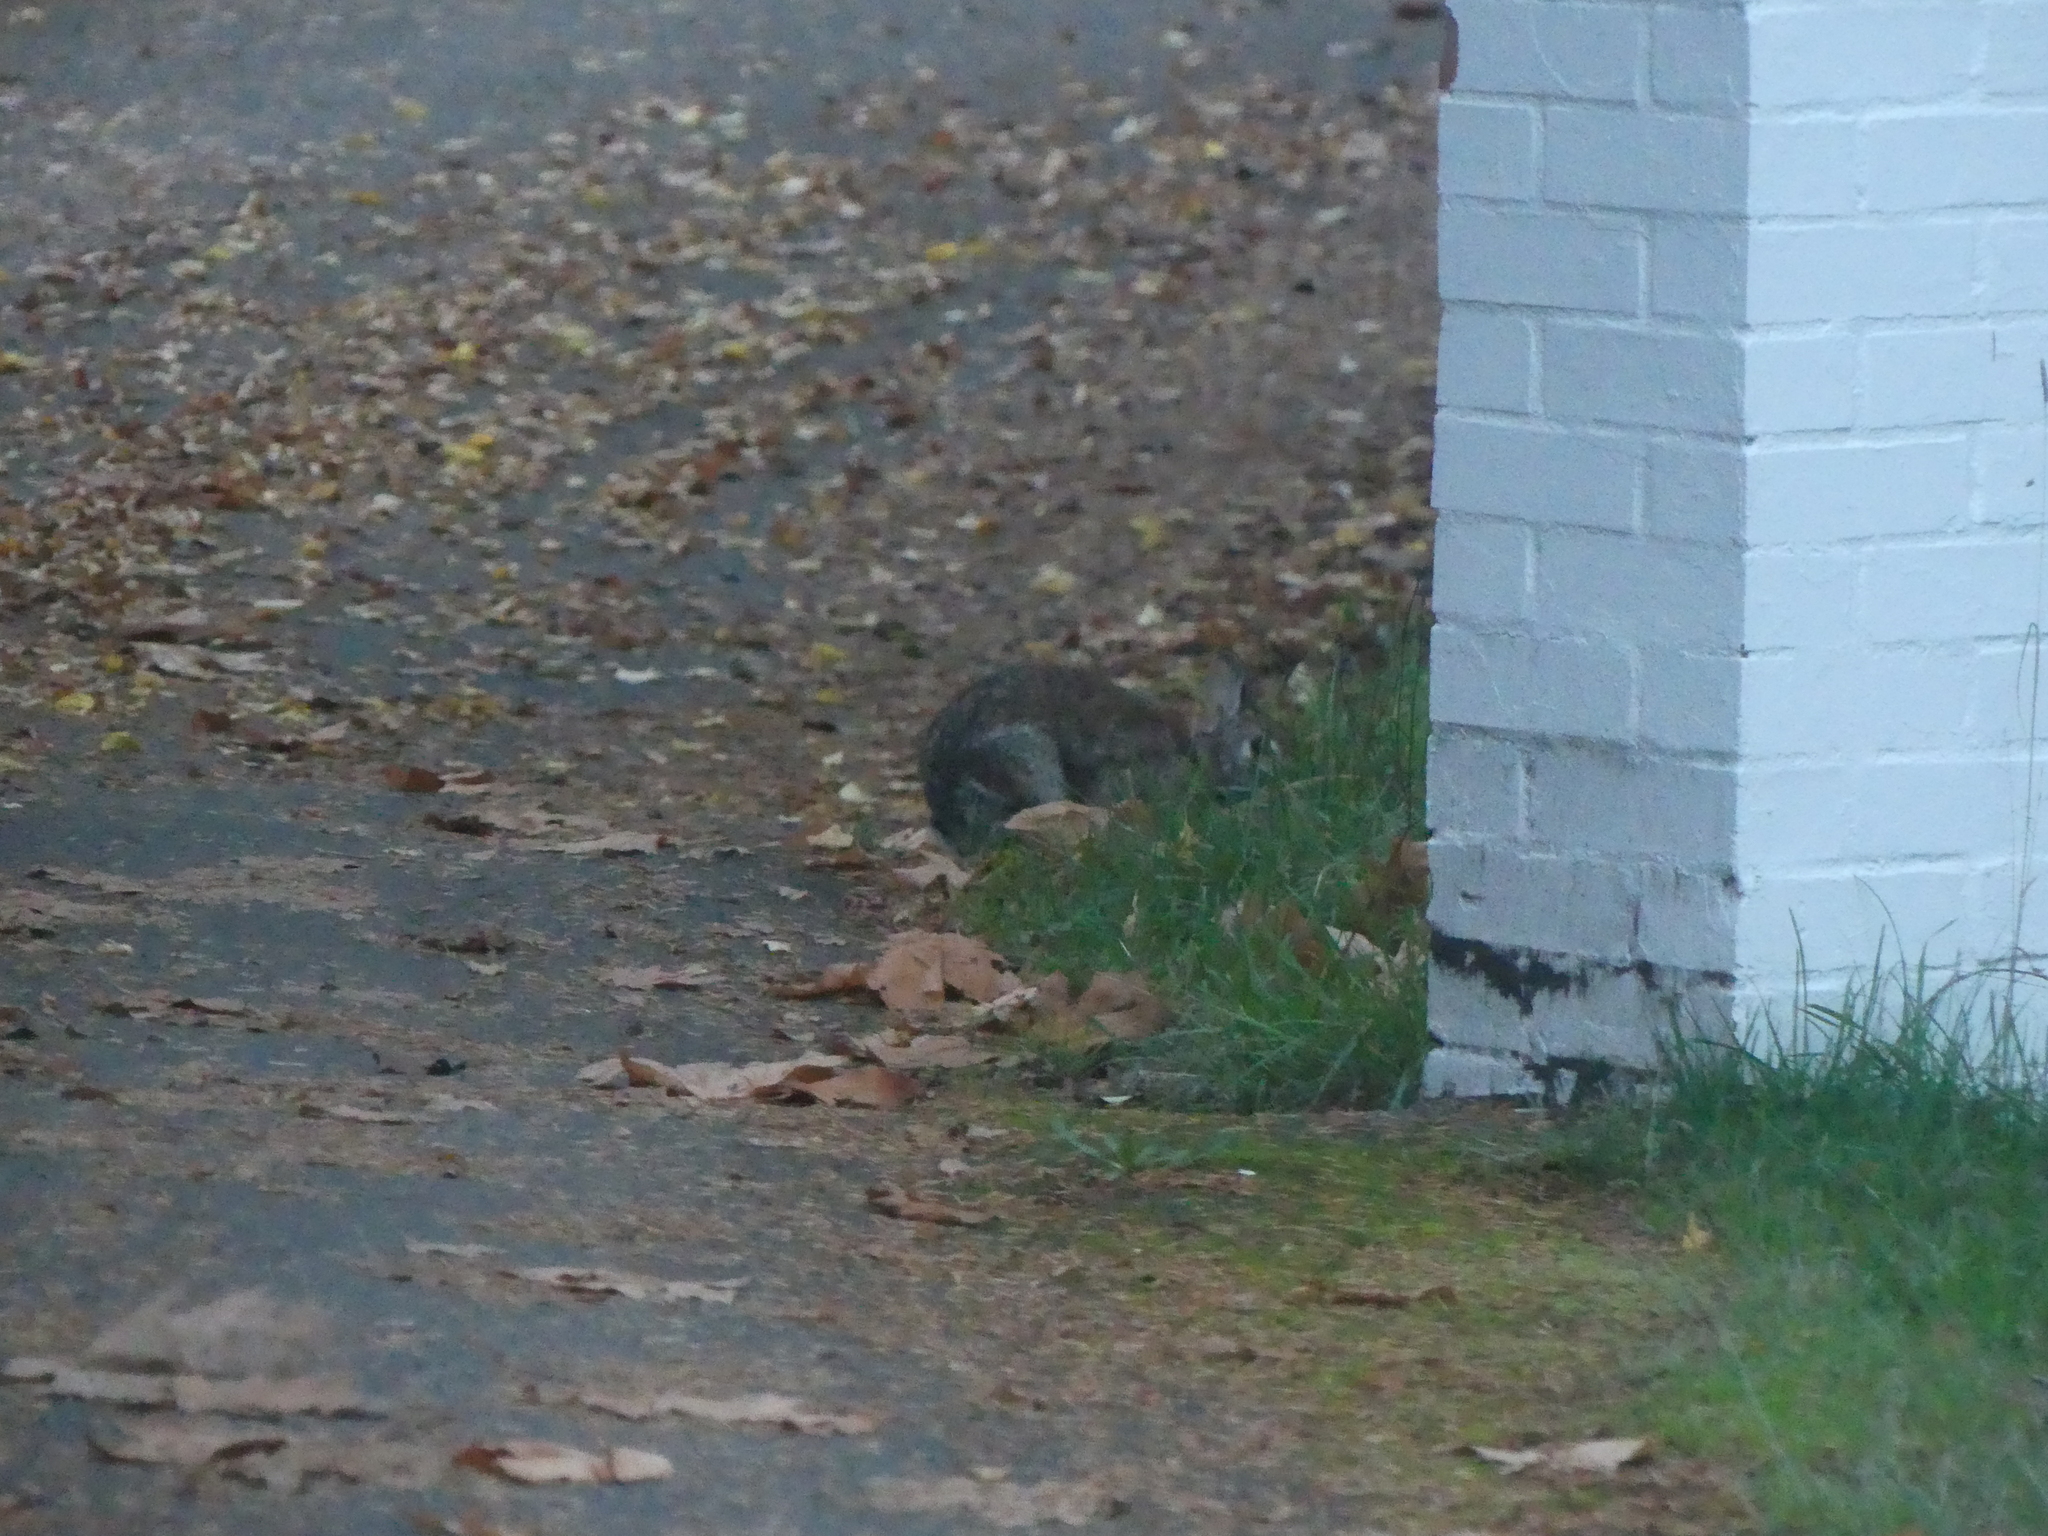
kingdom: Animalia
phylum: Chordata
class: Mammalia
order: Lagomorpha
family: Leporidae
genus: Sylvilagus
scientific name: Sylvilagus floridanus
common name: Eastern cottontail
